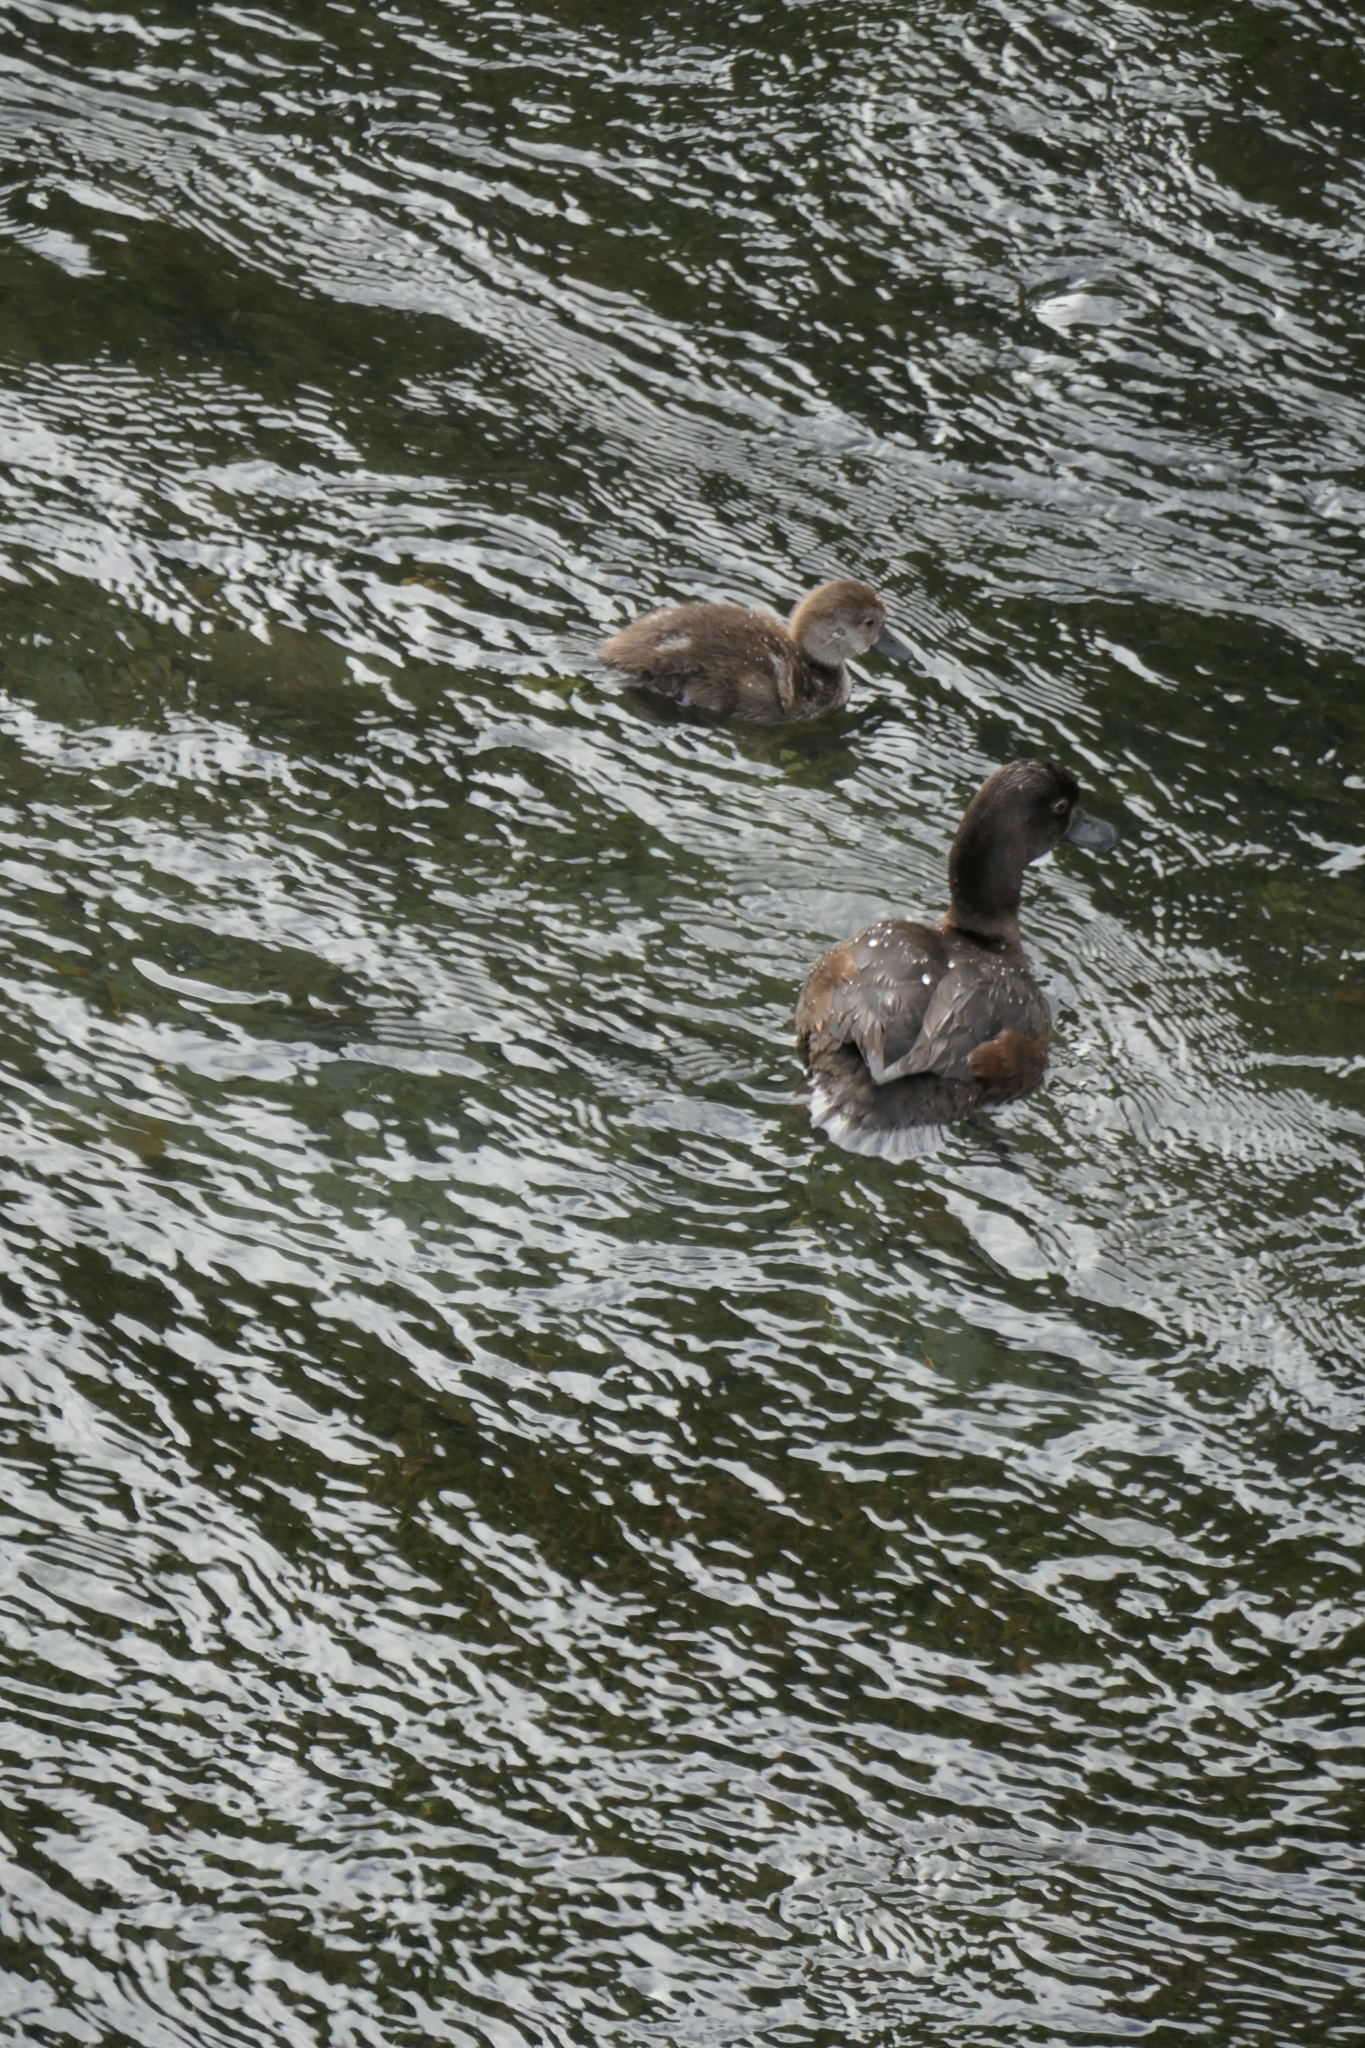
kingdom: Animalia
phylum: Chordata
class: Aves
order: Anseriformes
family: Anatidae
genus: Aythya
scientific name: Aythya novaeseelandiae
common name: New zealand scaup
